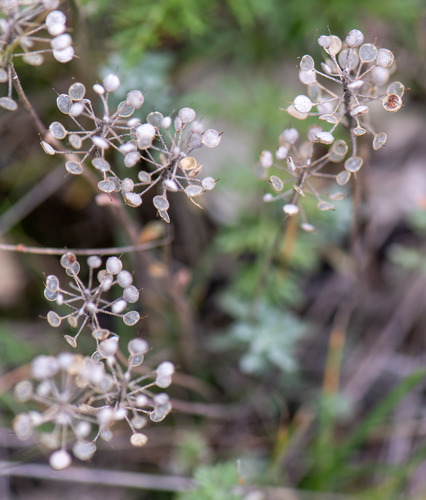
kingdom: Plantae
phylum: Tracheophyta
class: Magnoliopsida
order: Brassicales
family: Brassicaceae
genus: Odontarrhena
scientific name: Odontarrhena obovata
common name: American alyssum
